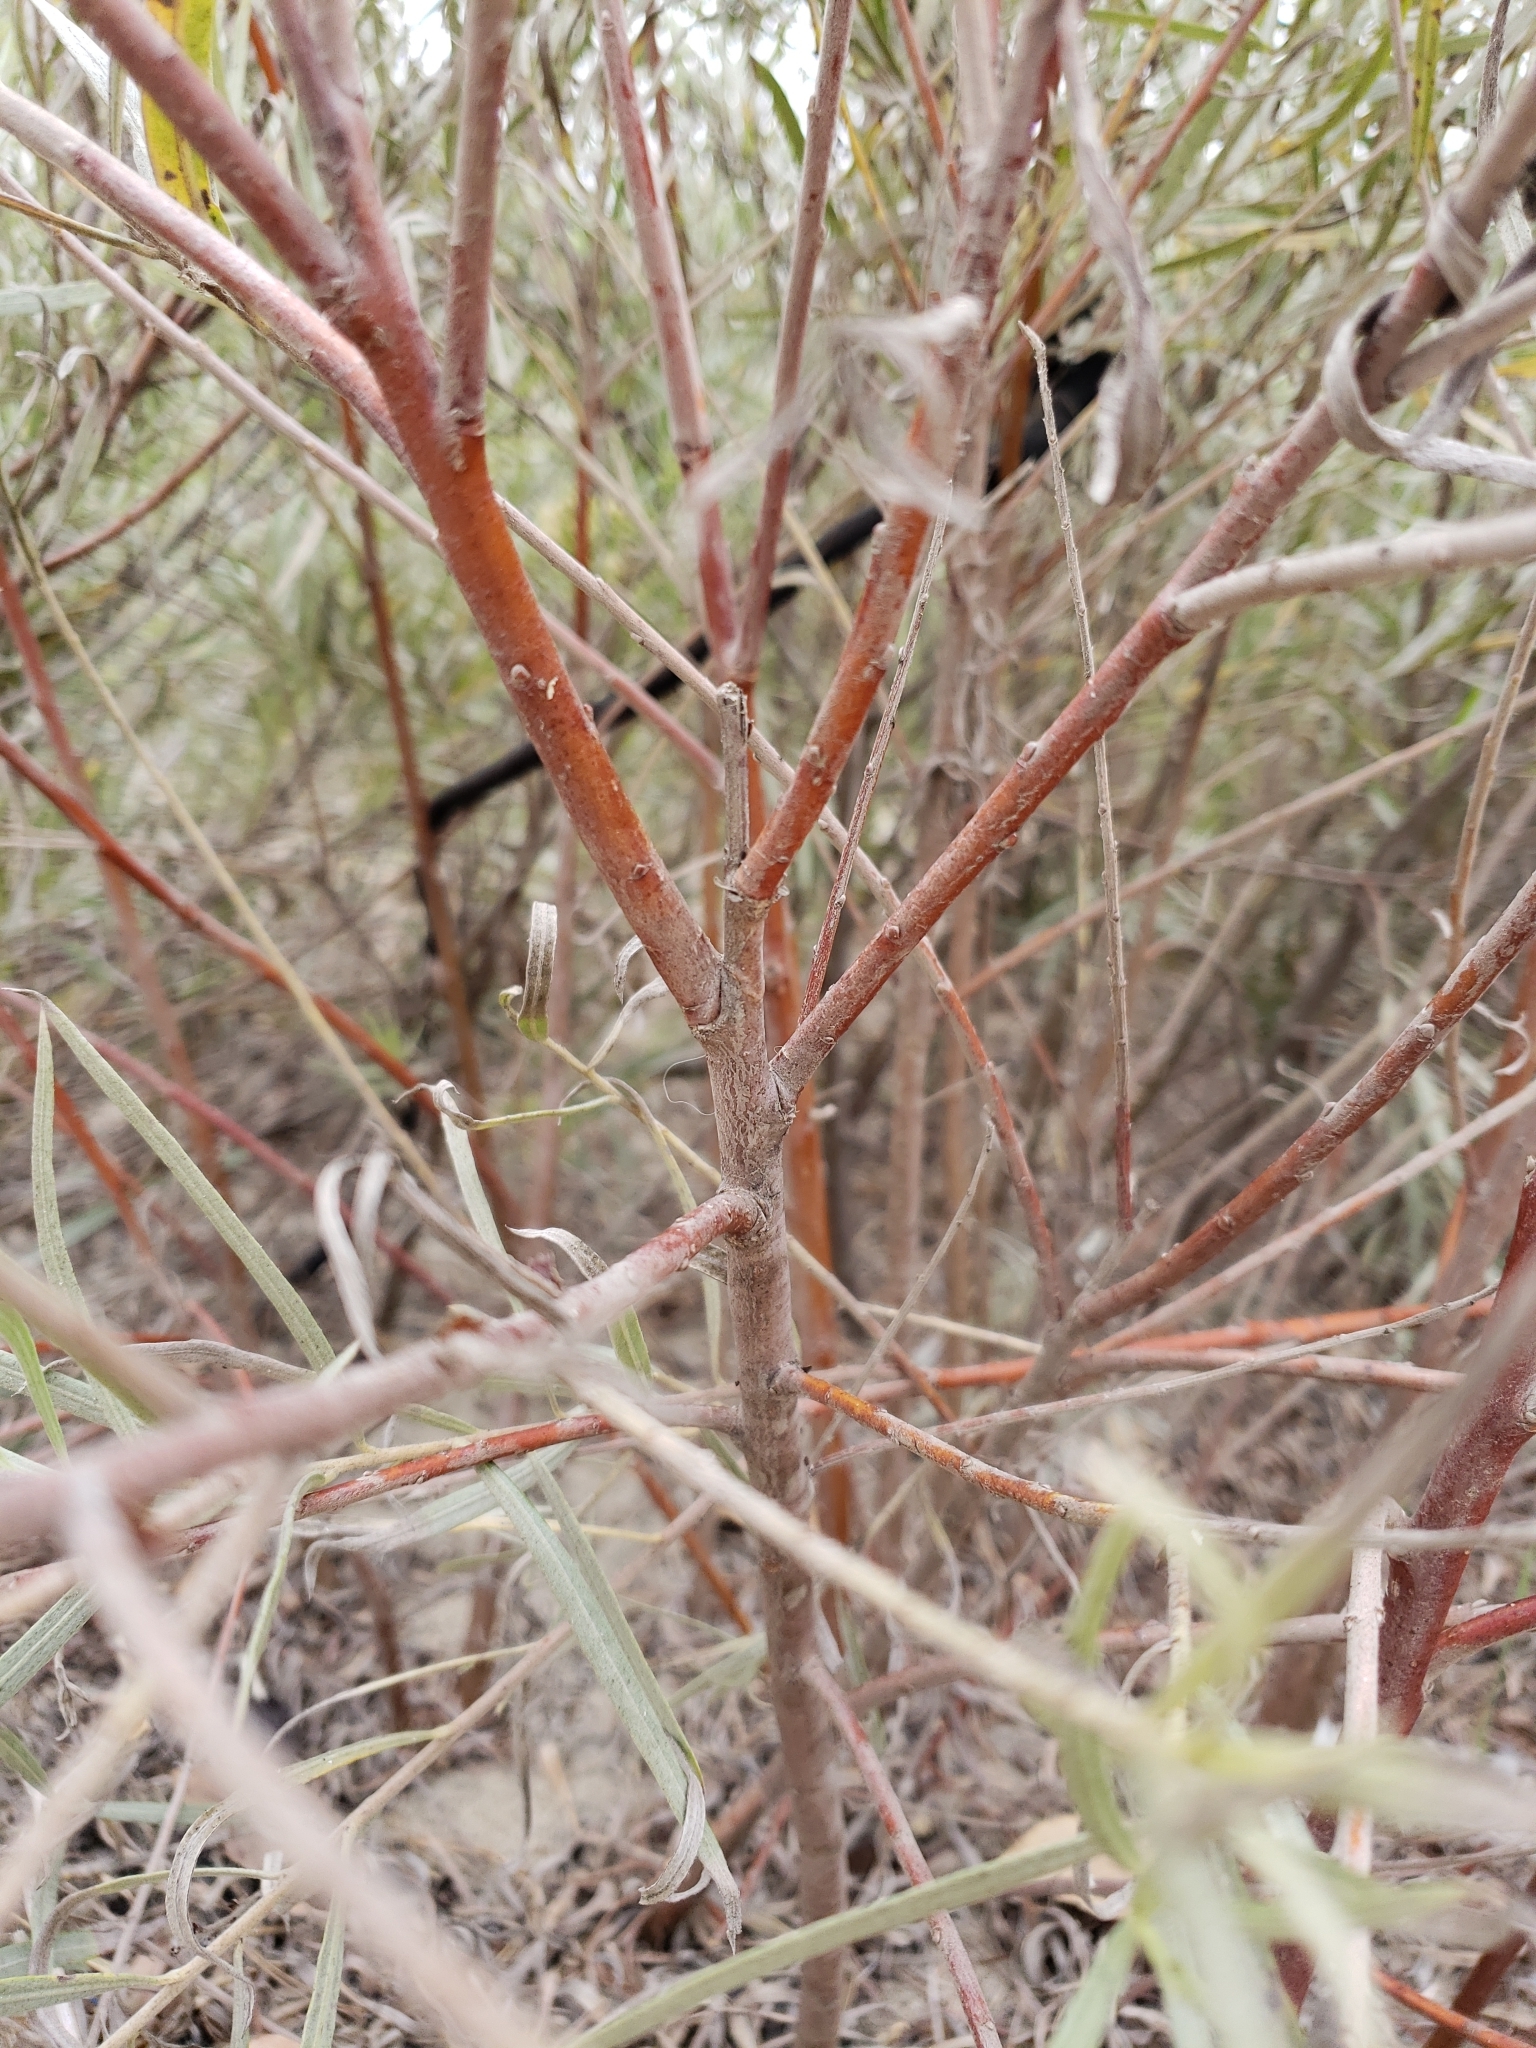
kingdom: Plantae
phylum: Tracheophyta
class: Magnoliopsida
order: Malpighiales
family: Salicaceae
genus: Salix
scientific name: Salix exigua
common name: Coyote willow
